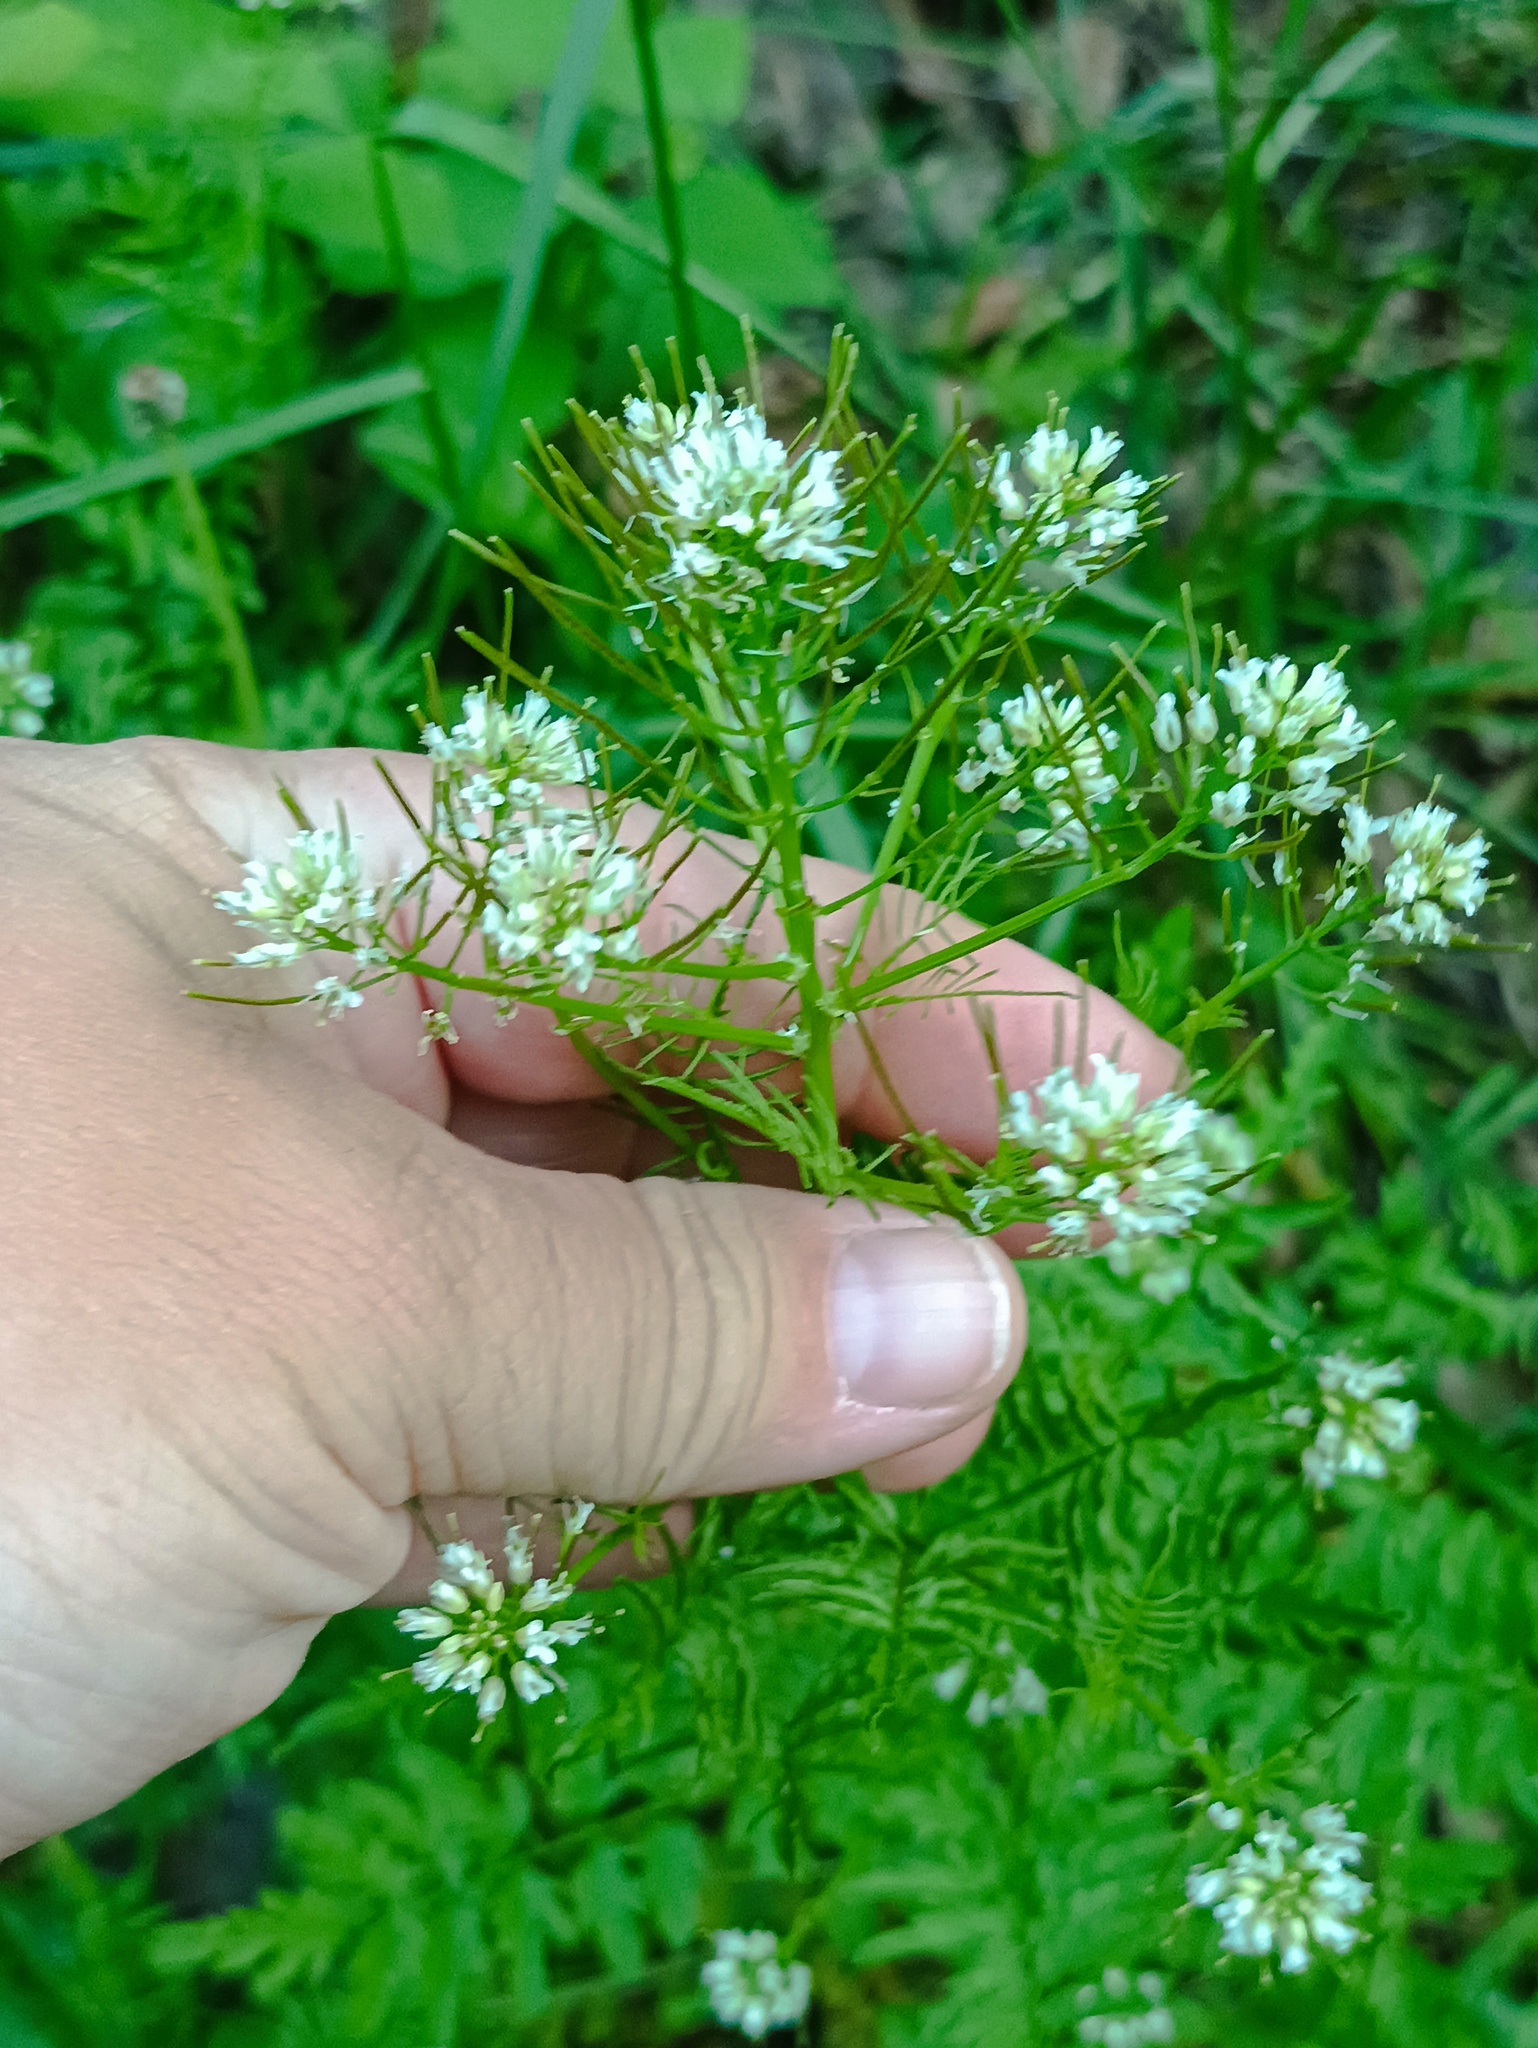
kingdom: Plantae
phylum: Tracheophyta
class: Magnoliopsida
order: Brassicales
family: Brassicaceae
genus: Cardamine
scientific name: Cardamine impatiens
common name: Narrow-leaved bitter-cress
